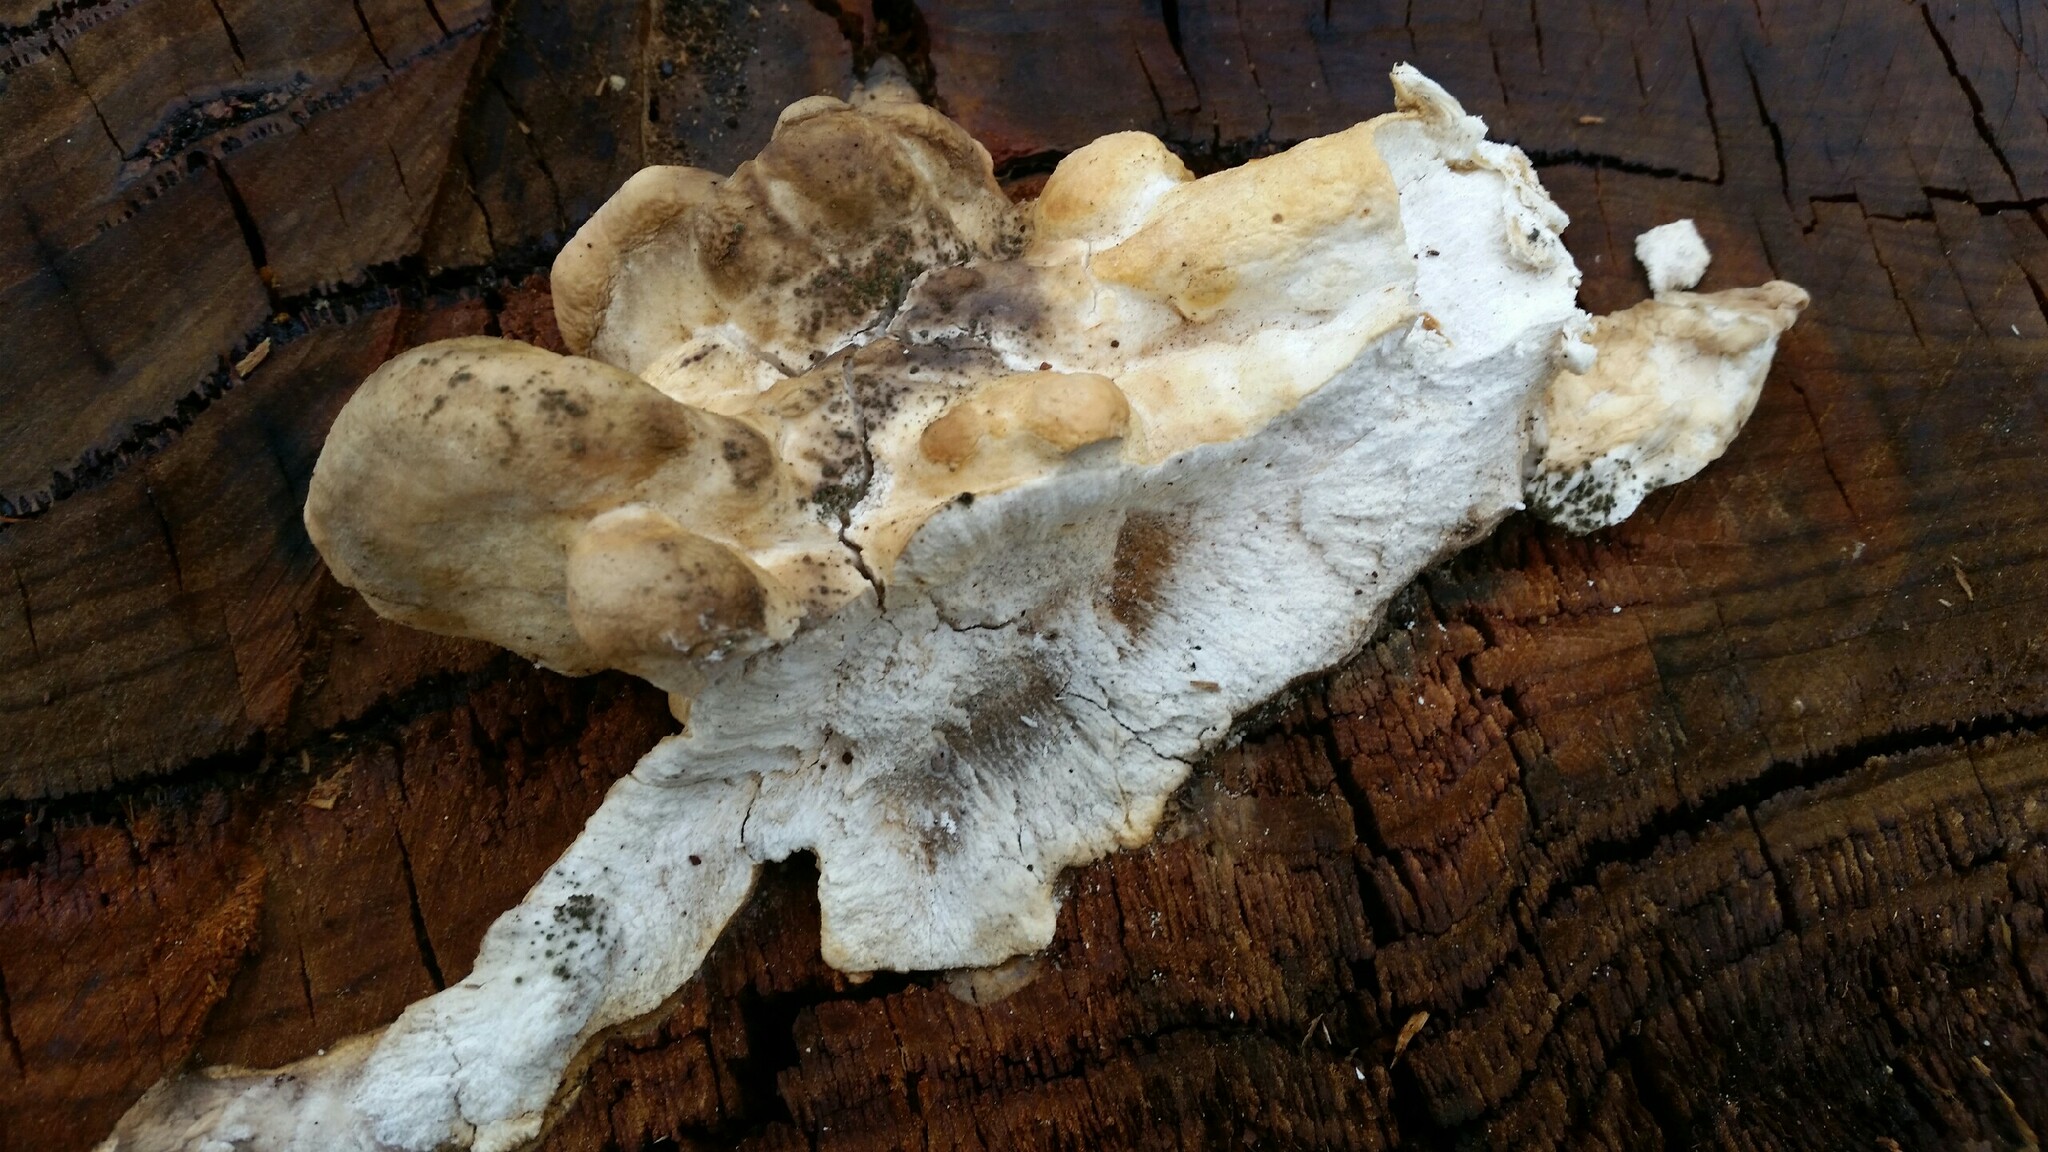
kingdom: Fungi
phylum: Basidiomycota
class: Agaricomycetes
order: Polyporales
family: Laetiporaceae
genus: Laetiporus
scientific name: Laetiporus gilbertsonii
